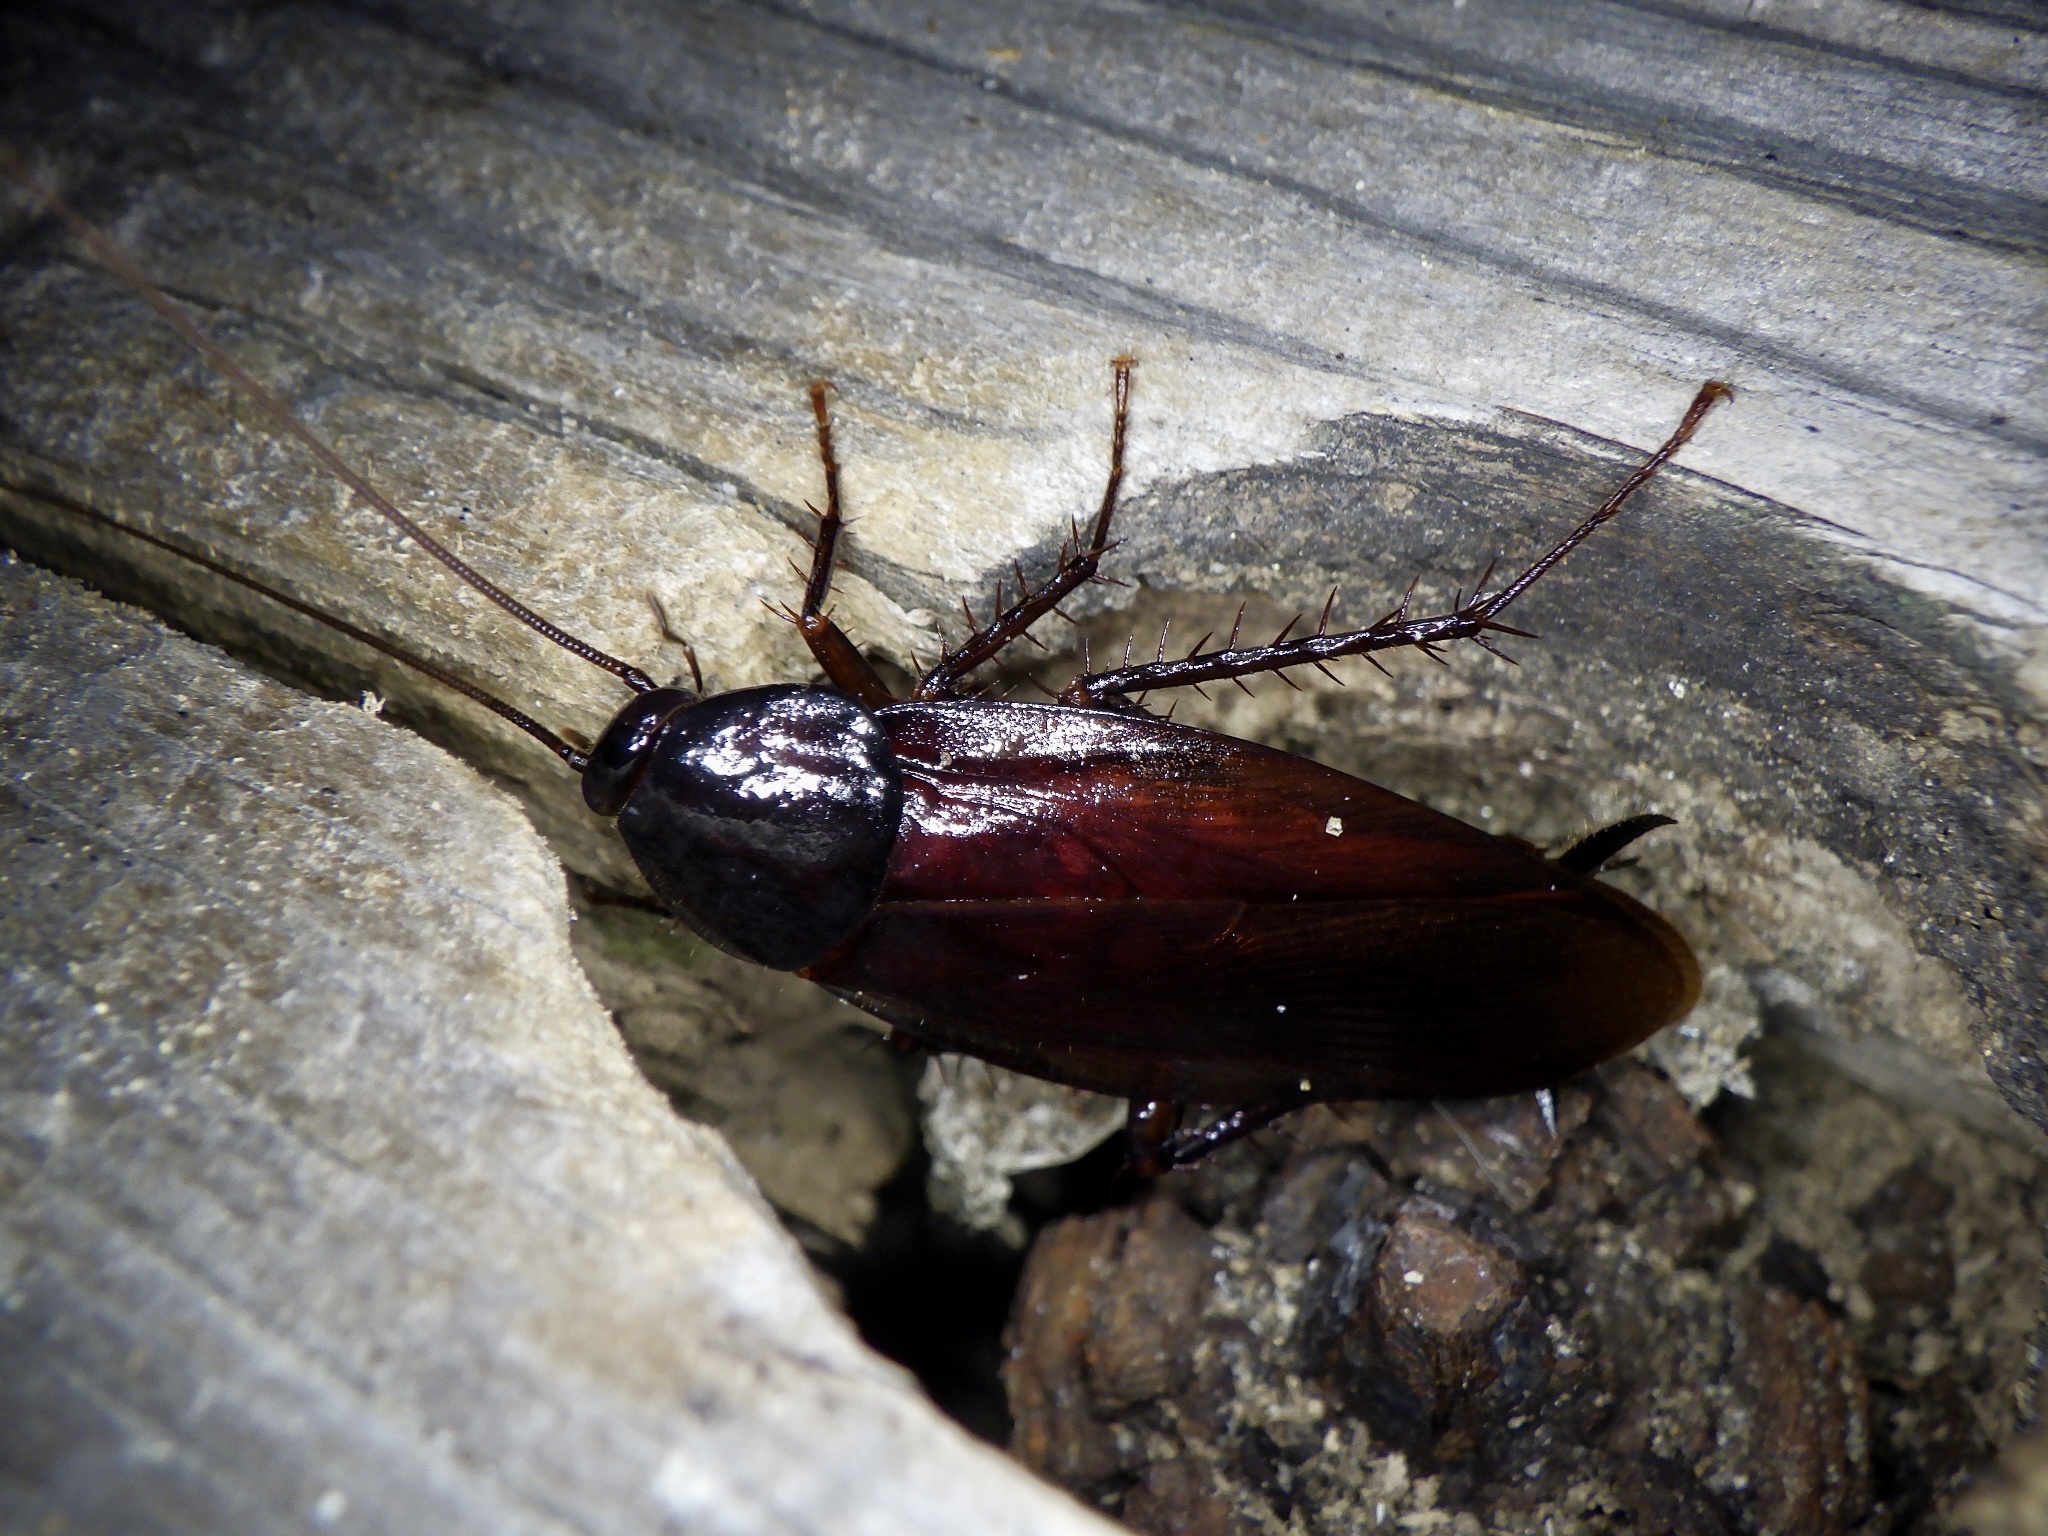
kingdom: Animalia
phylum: Arthropoda
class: Insecta
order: Blattodea
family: Blattidae
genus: Periplaneta
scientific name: Periplaneta fuliginosa
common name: Smokeybrown cockroad
